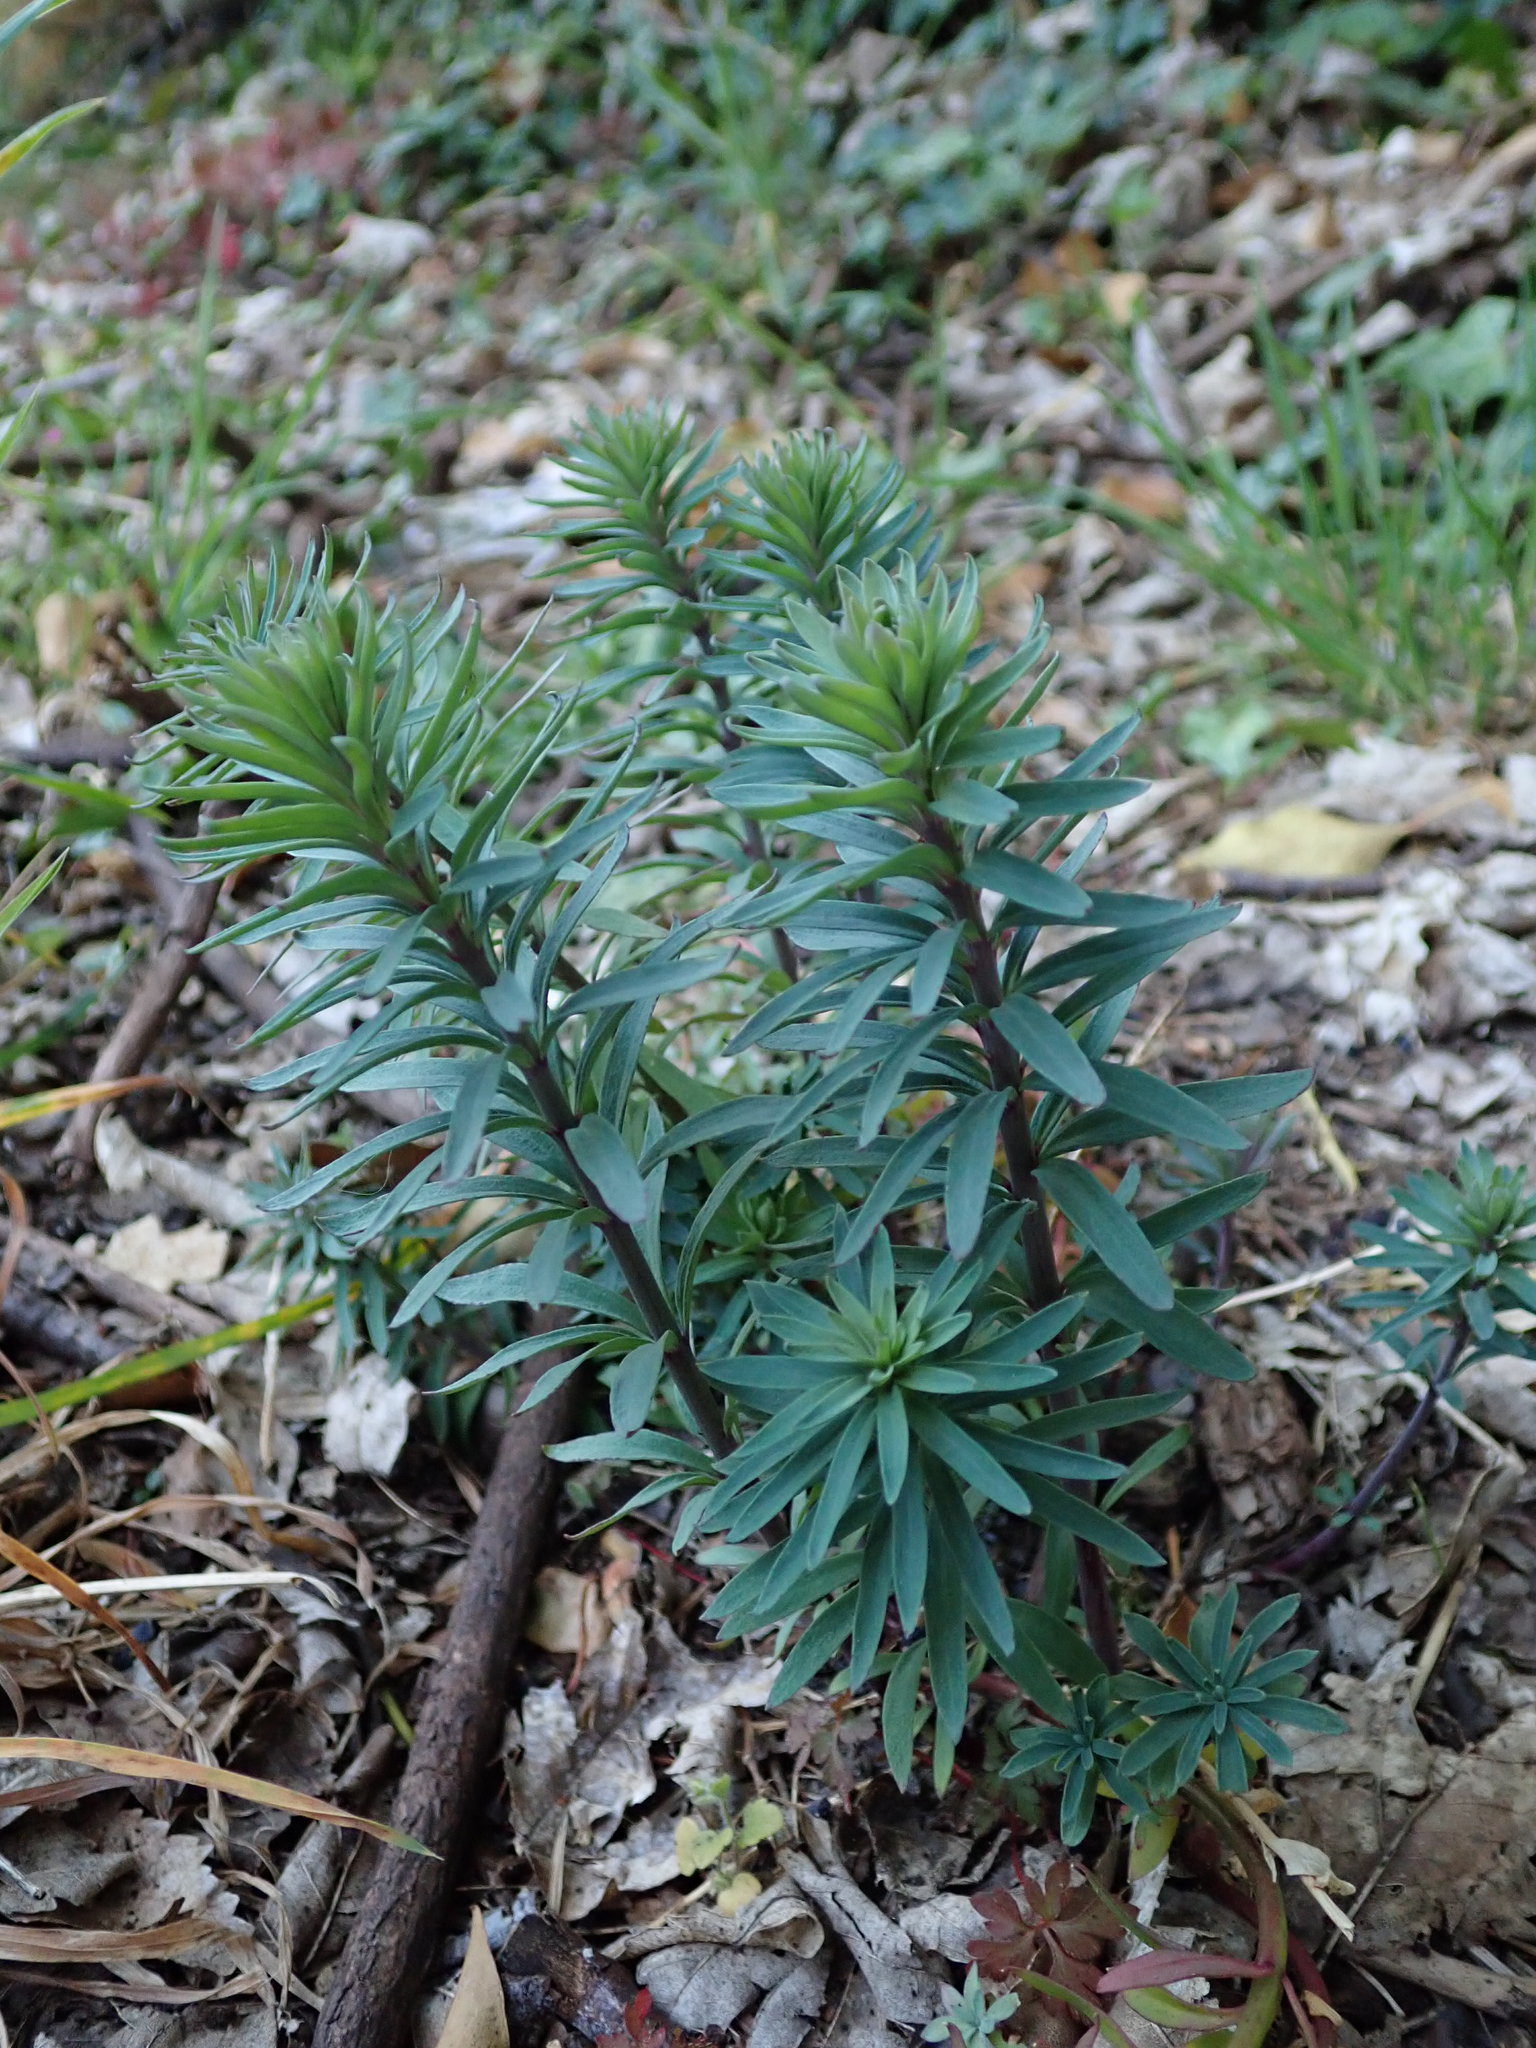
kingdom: Plantae
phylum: Tracheophyta
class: Magnoliopsida
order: Lamiales
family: Plantaginaceae
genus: Linaria
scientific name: Linaria purpurea
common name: Purple toadflax
